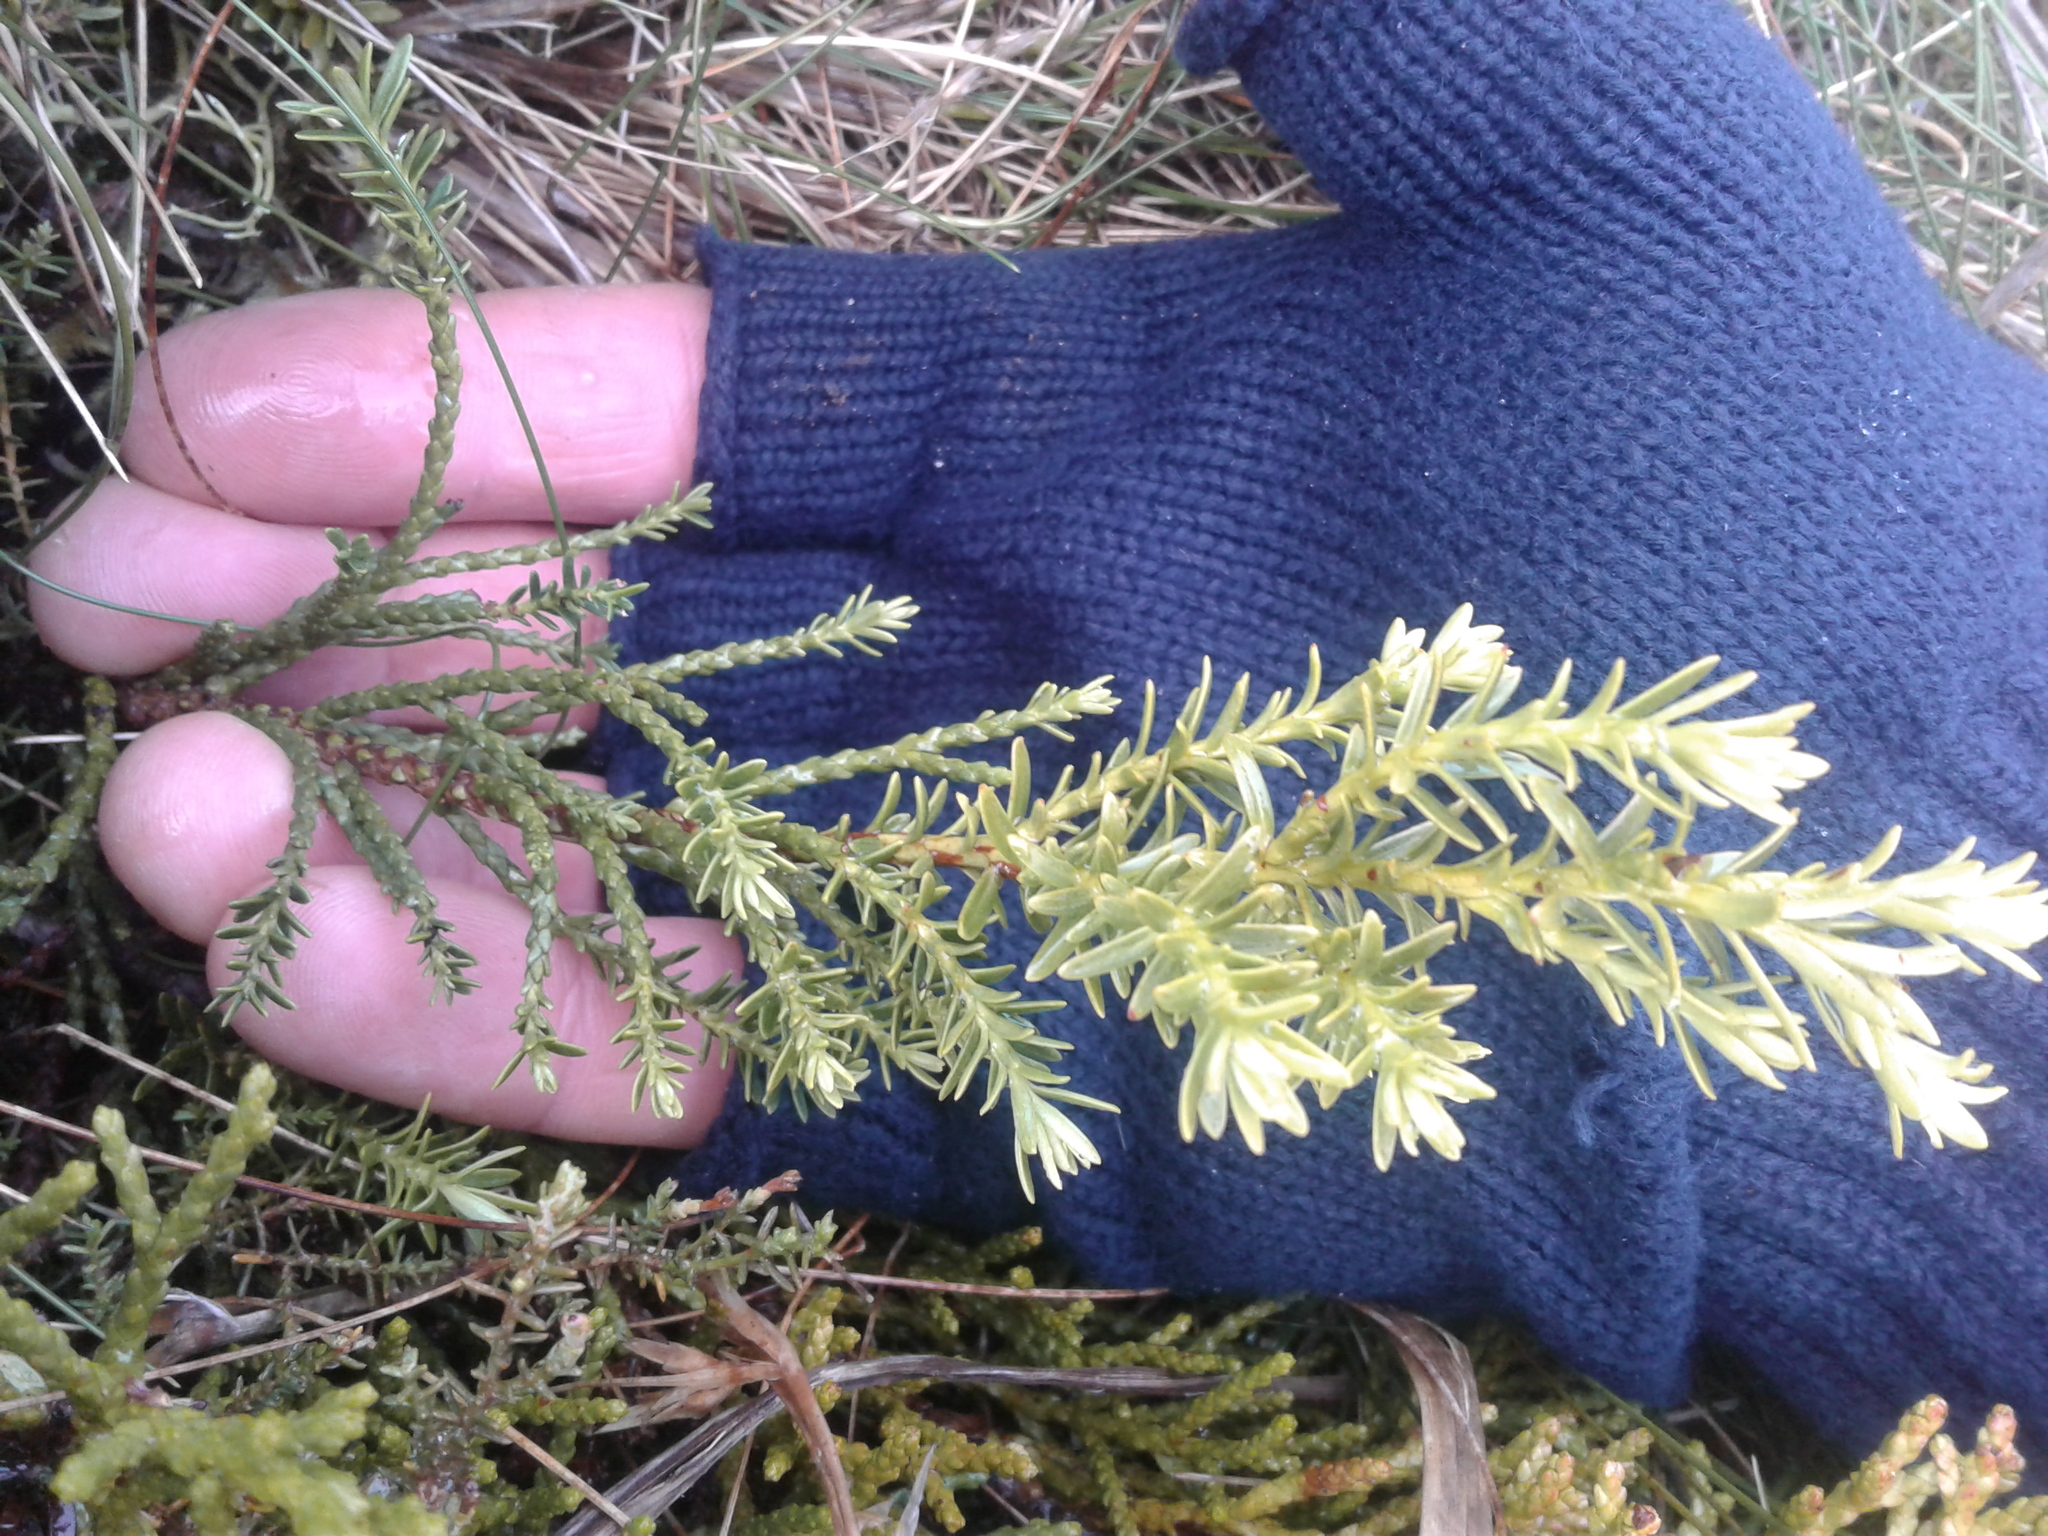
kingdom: Plantae
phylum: Tracheophyta
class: Pinopsida
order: Pinales
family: Podocarpaceae
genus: Halocarpus
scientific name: Halocarpus biformis
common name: Alpine tarwood
